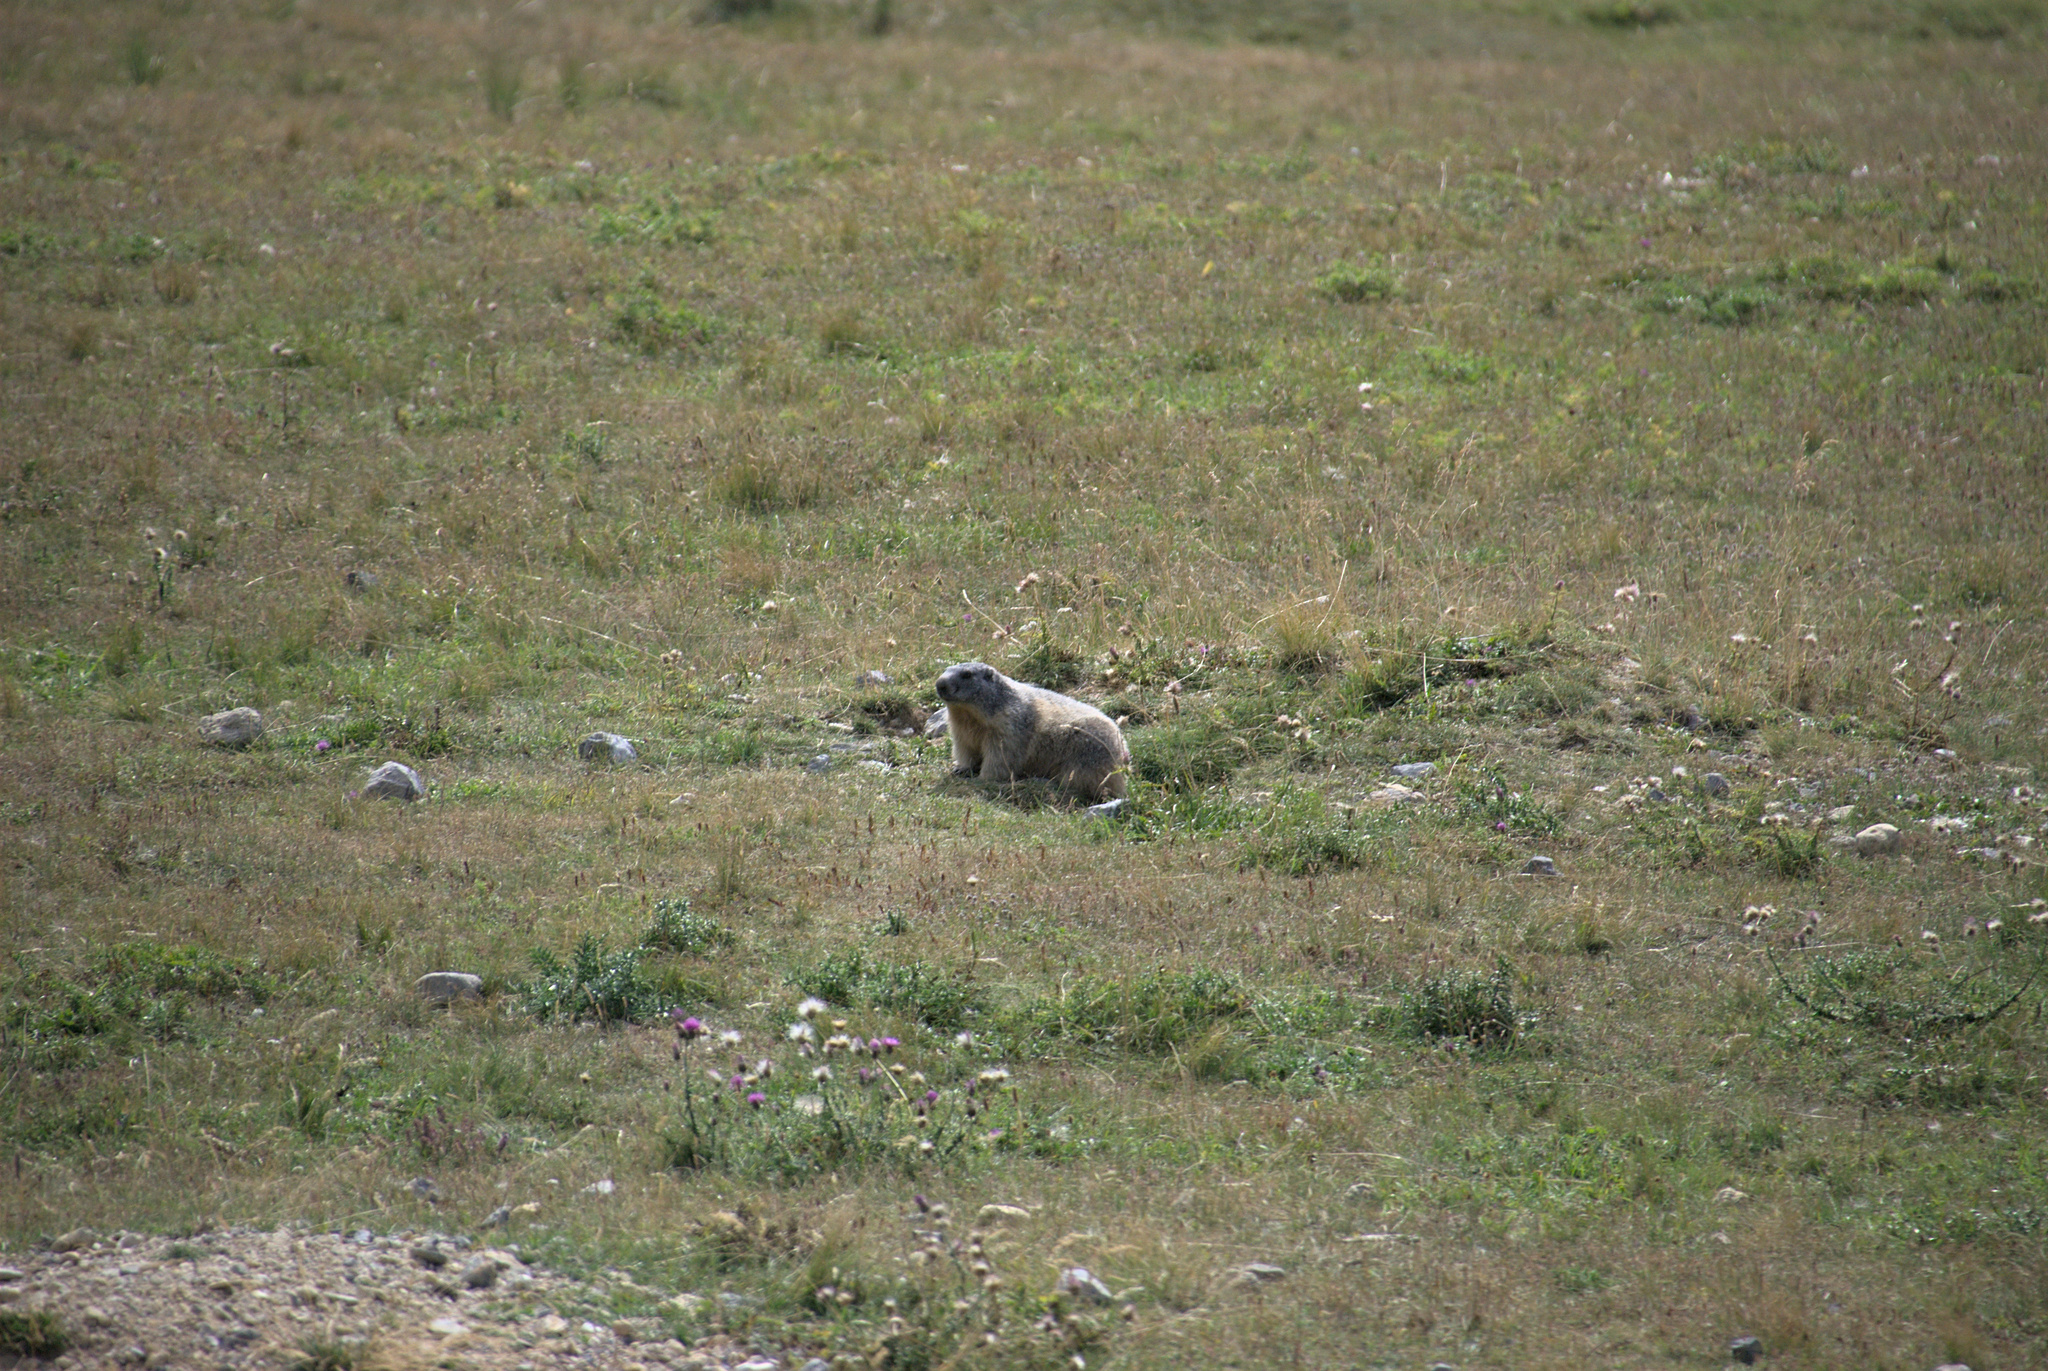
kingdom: Animalia
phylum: Chordata
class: Mammalia
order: Rodentia
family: Sciuridae
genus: Marmota
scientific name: Marmota marmota
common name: Alpine marmot
